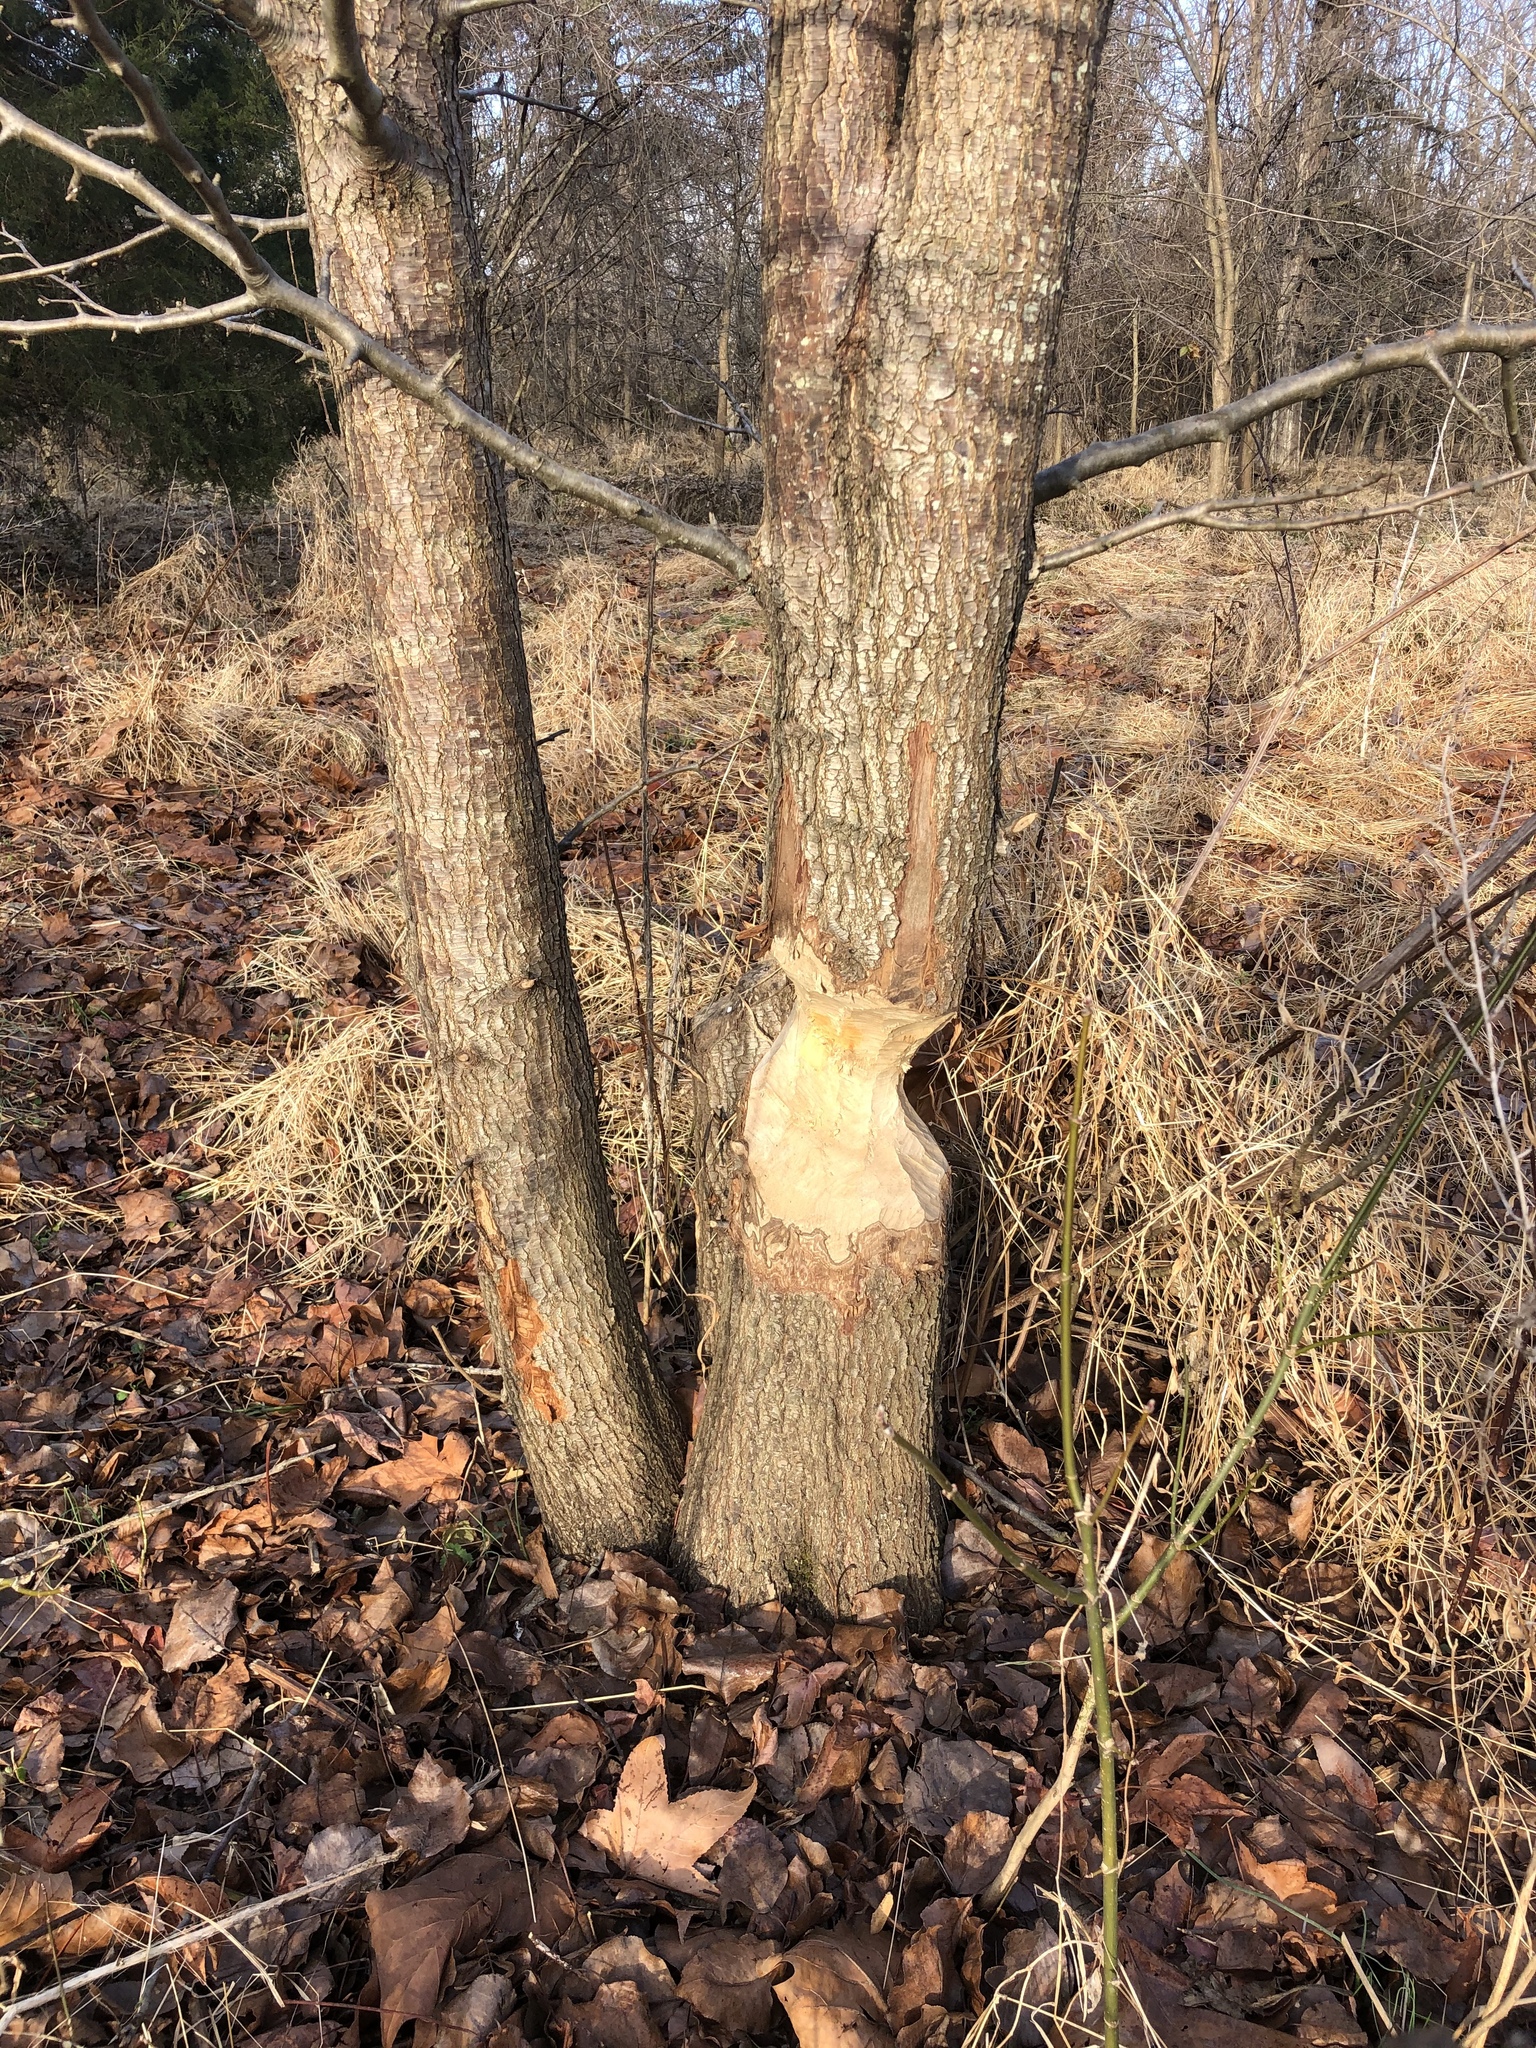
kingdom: Animalia
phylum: Chordata
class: Mammalia
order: Rodentia
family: Castoridae
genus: Castor
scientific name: Castor canadensis
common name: American beaver
